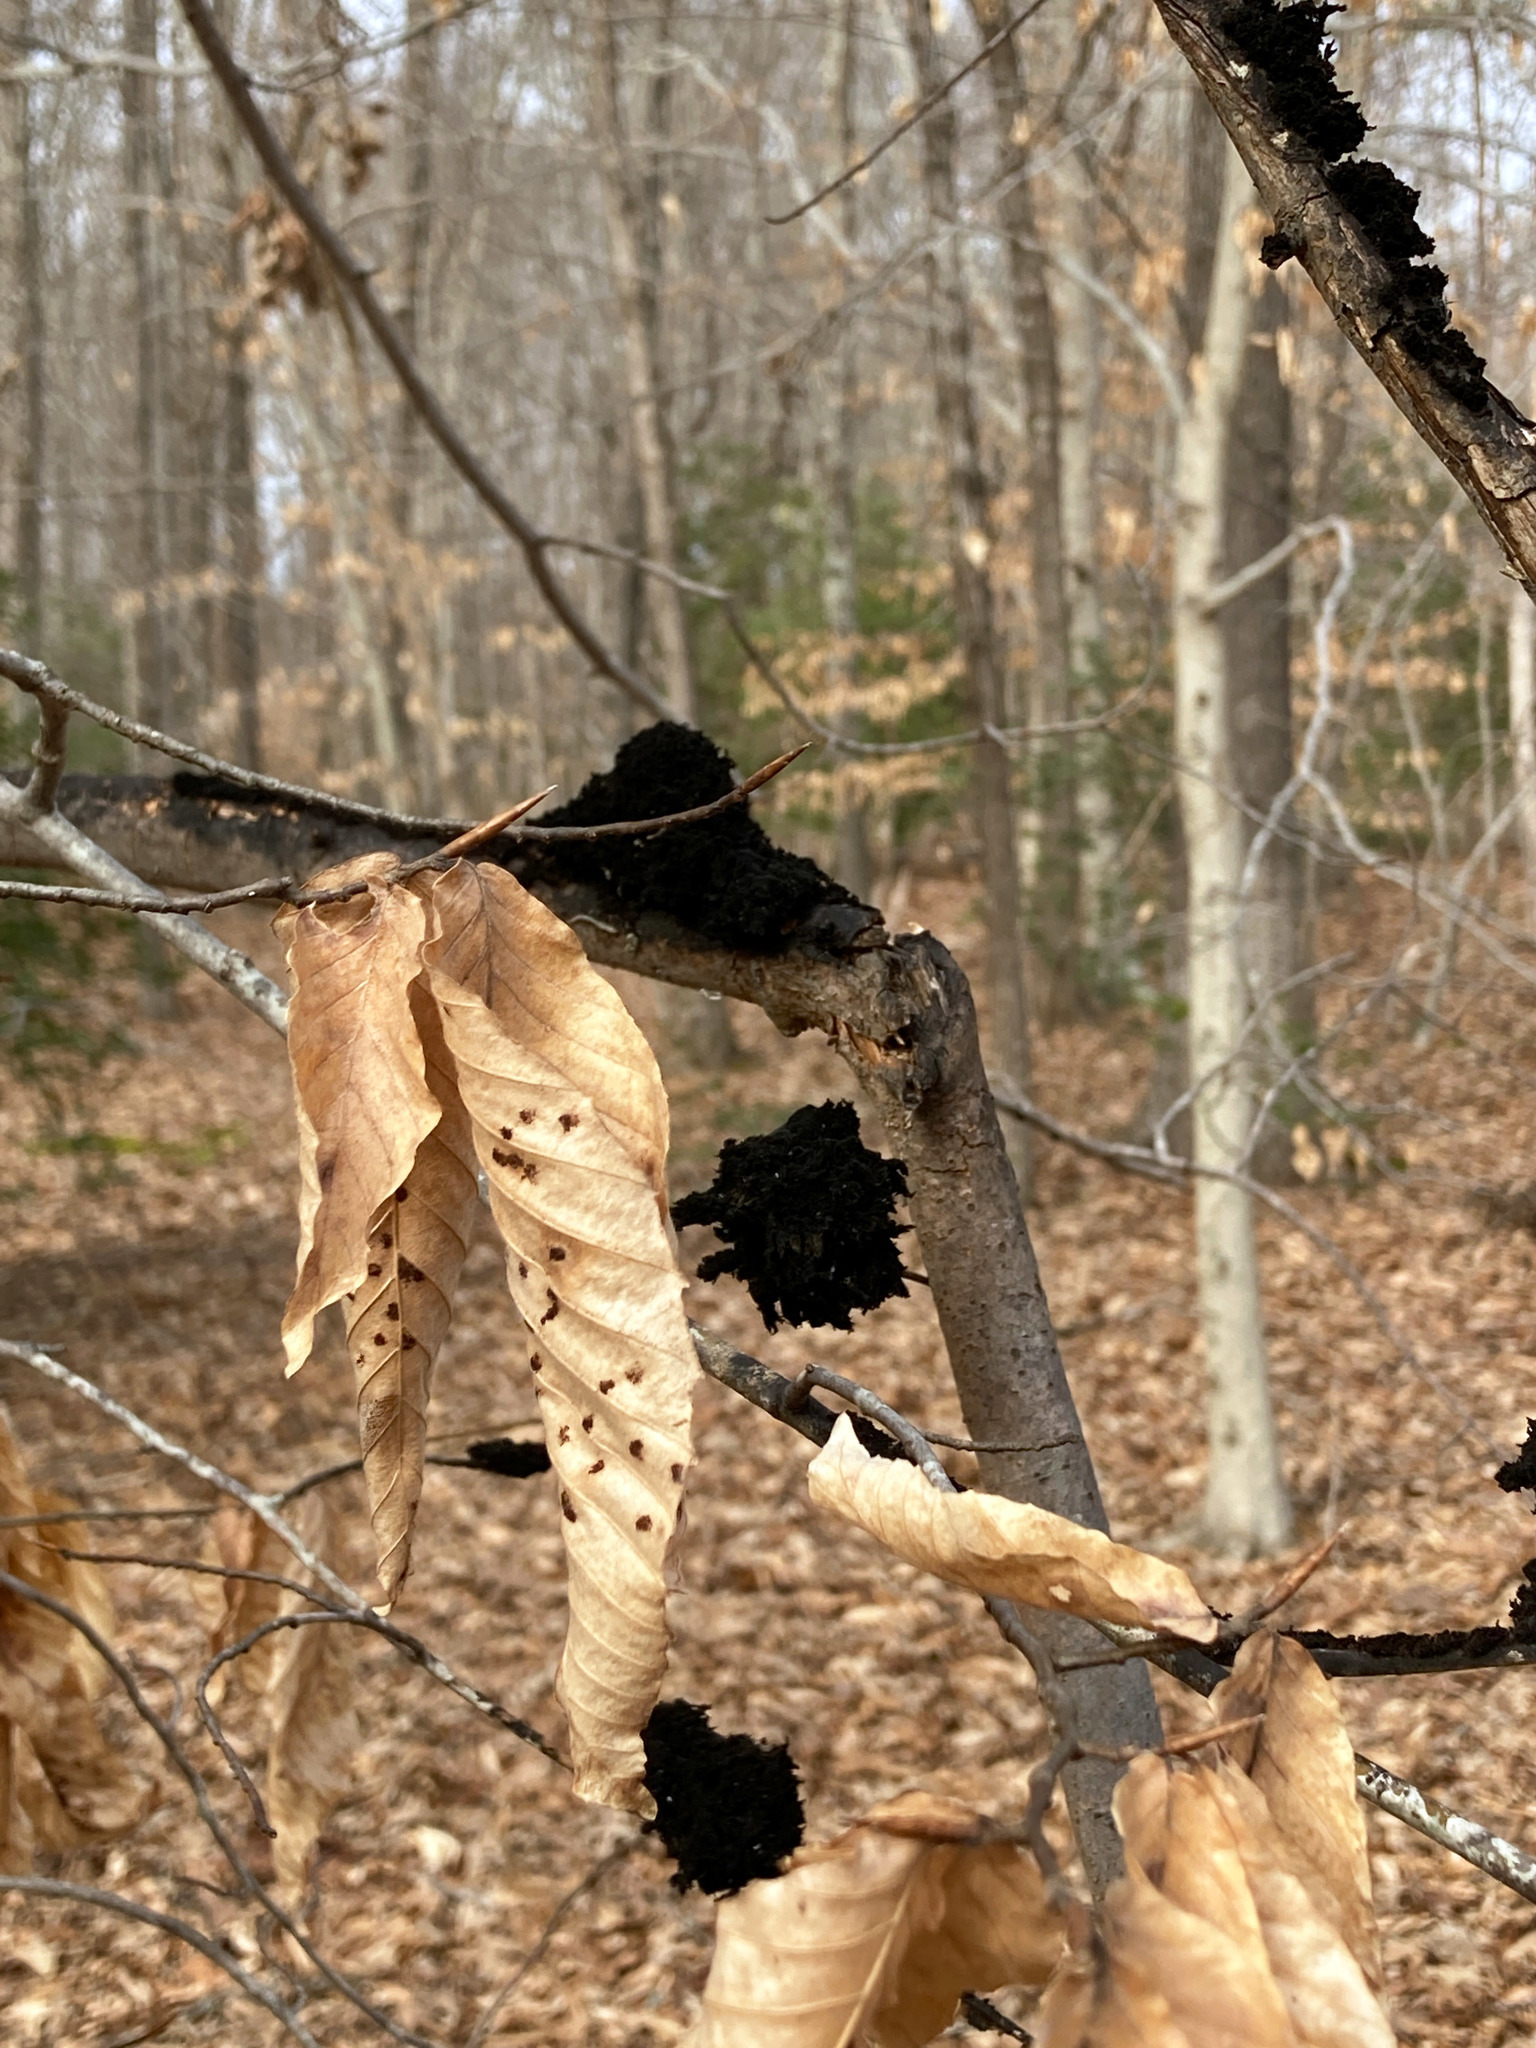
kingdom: Fungi
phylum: Ascomycota
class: Dothideomycetes
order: Capnodiales
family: Capnodiaceae
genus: Scorias
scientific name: Scorias spongiosa
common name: Black sooty mold
